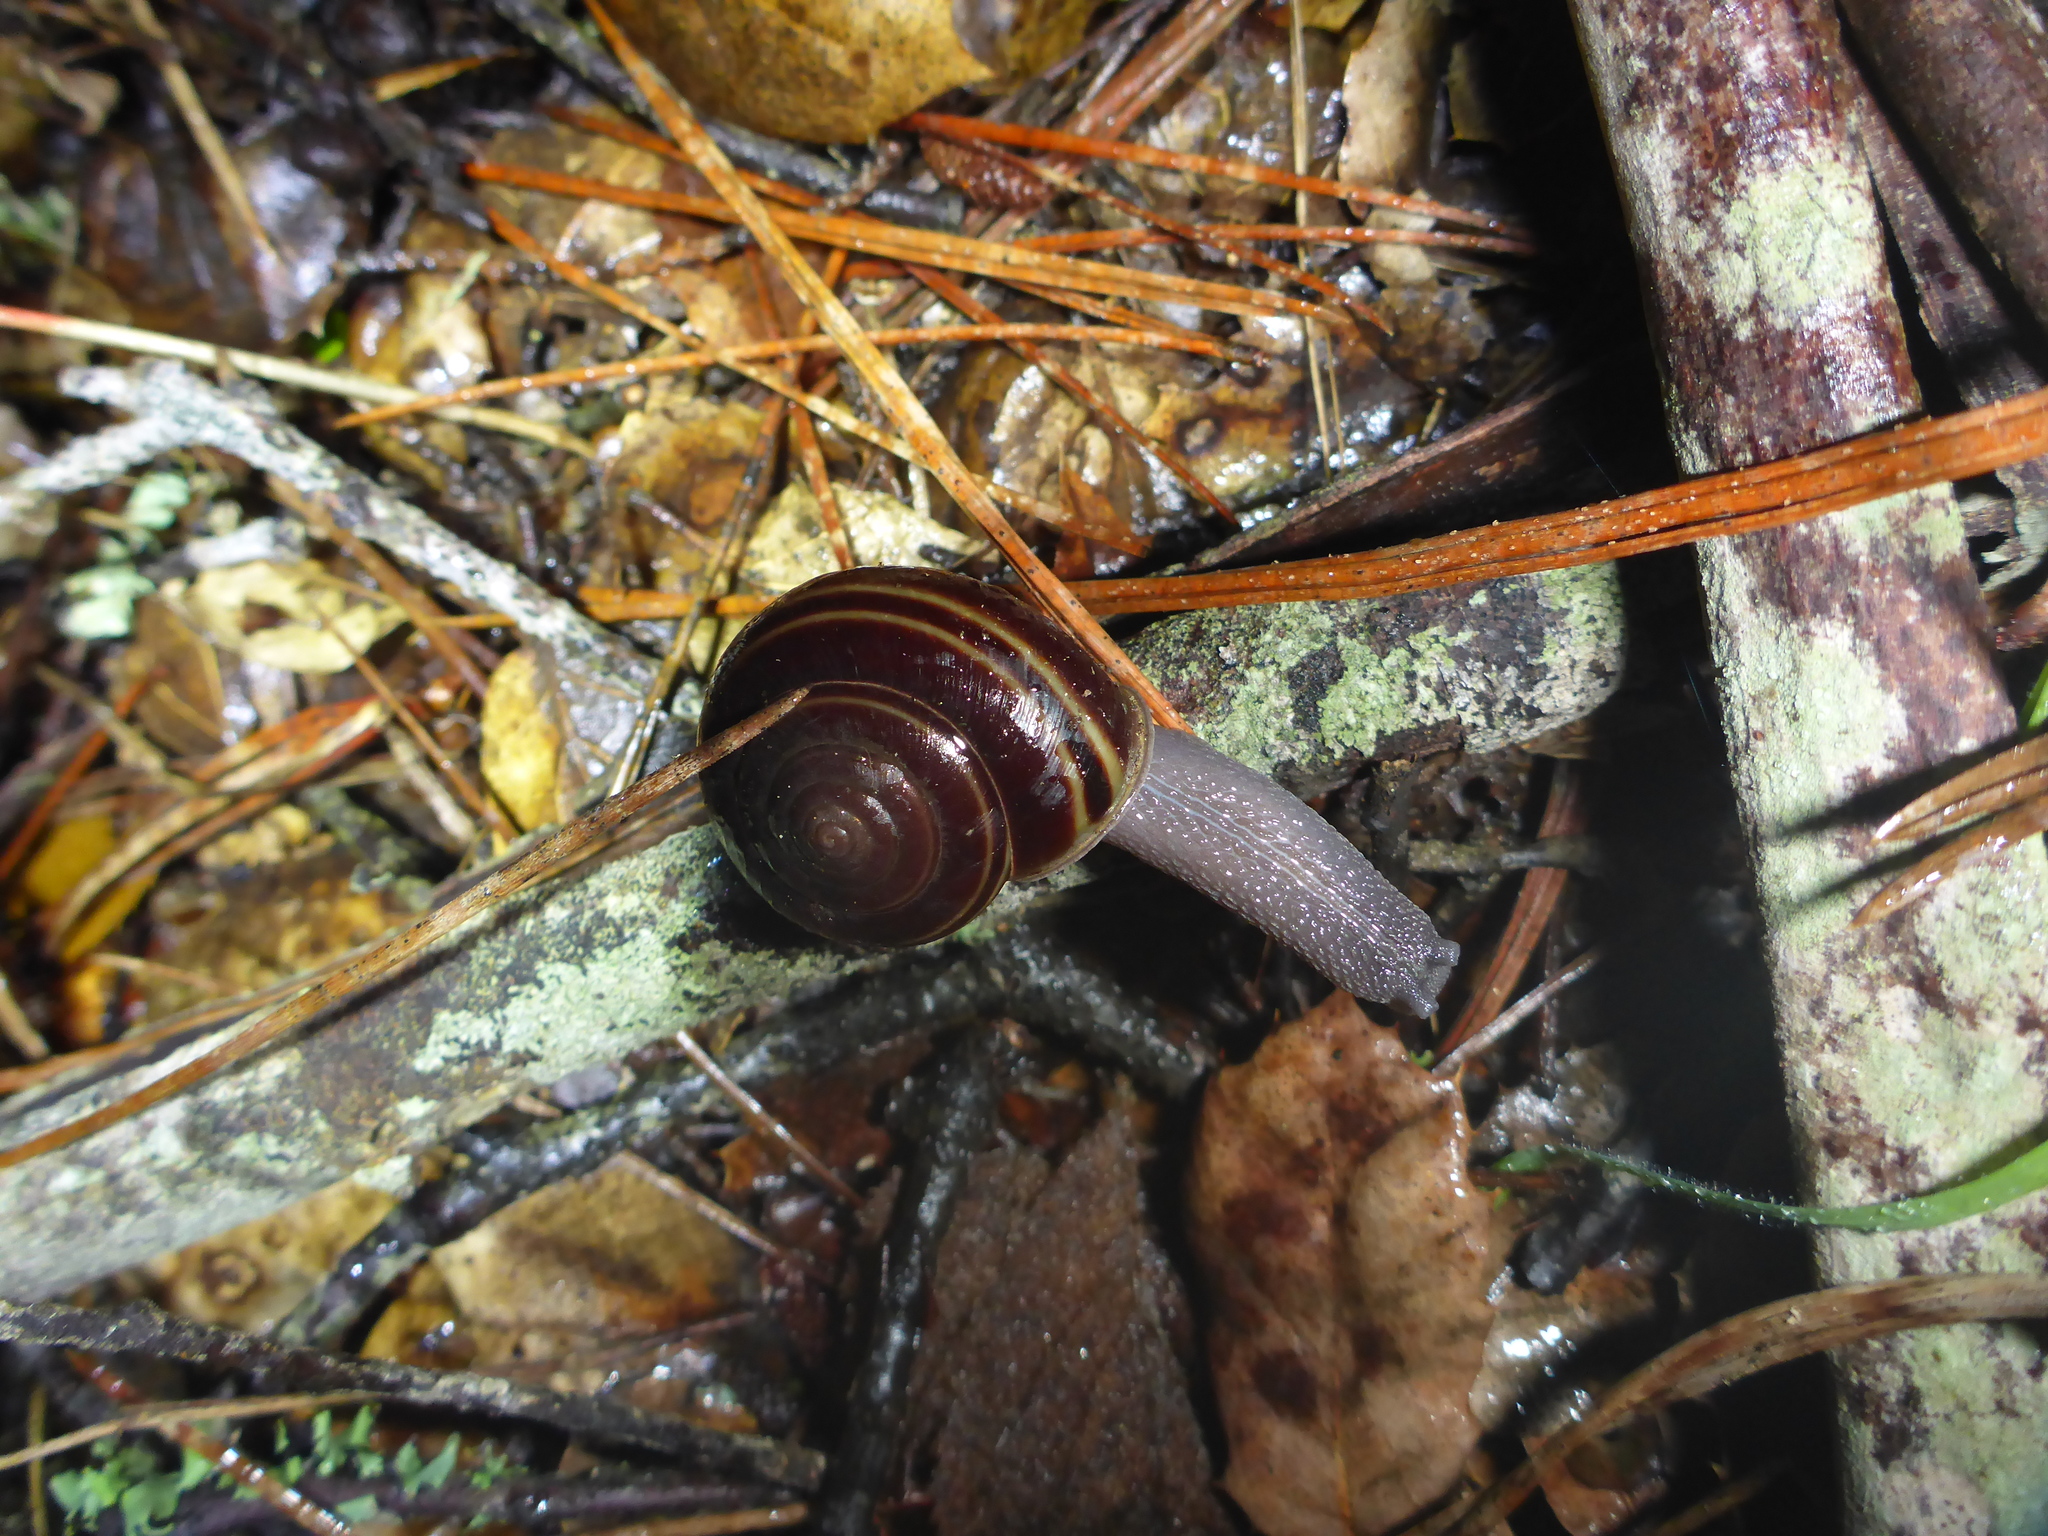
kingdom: Animalia
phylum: Mollusca
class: Gastropoda
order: Stylommatophora
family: Xanthonychidae
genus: Helminthoglypta
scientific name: Helminthoglypta sequoicola
